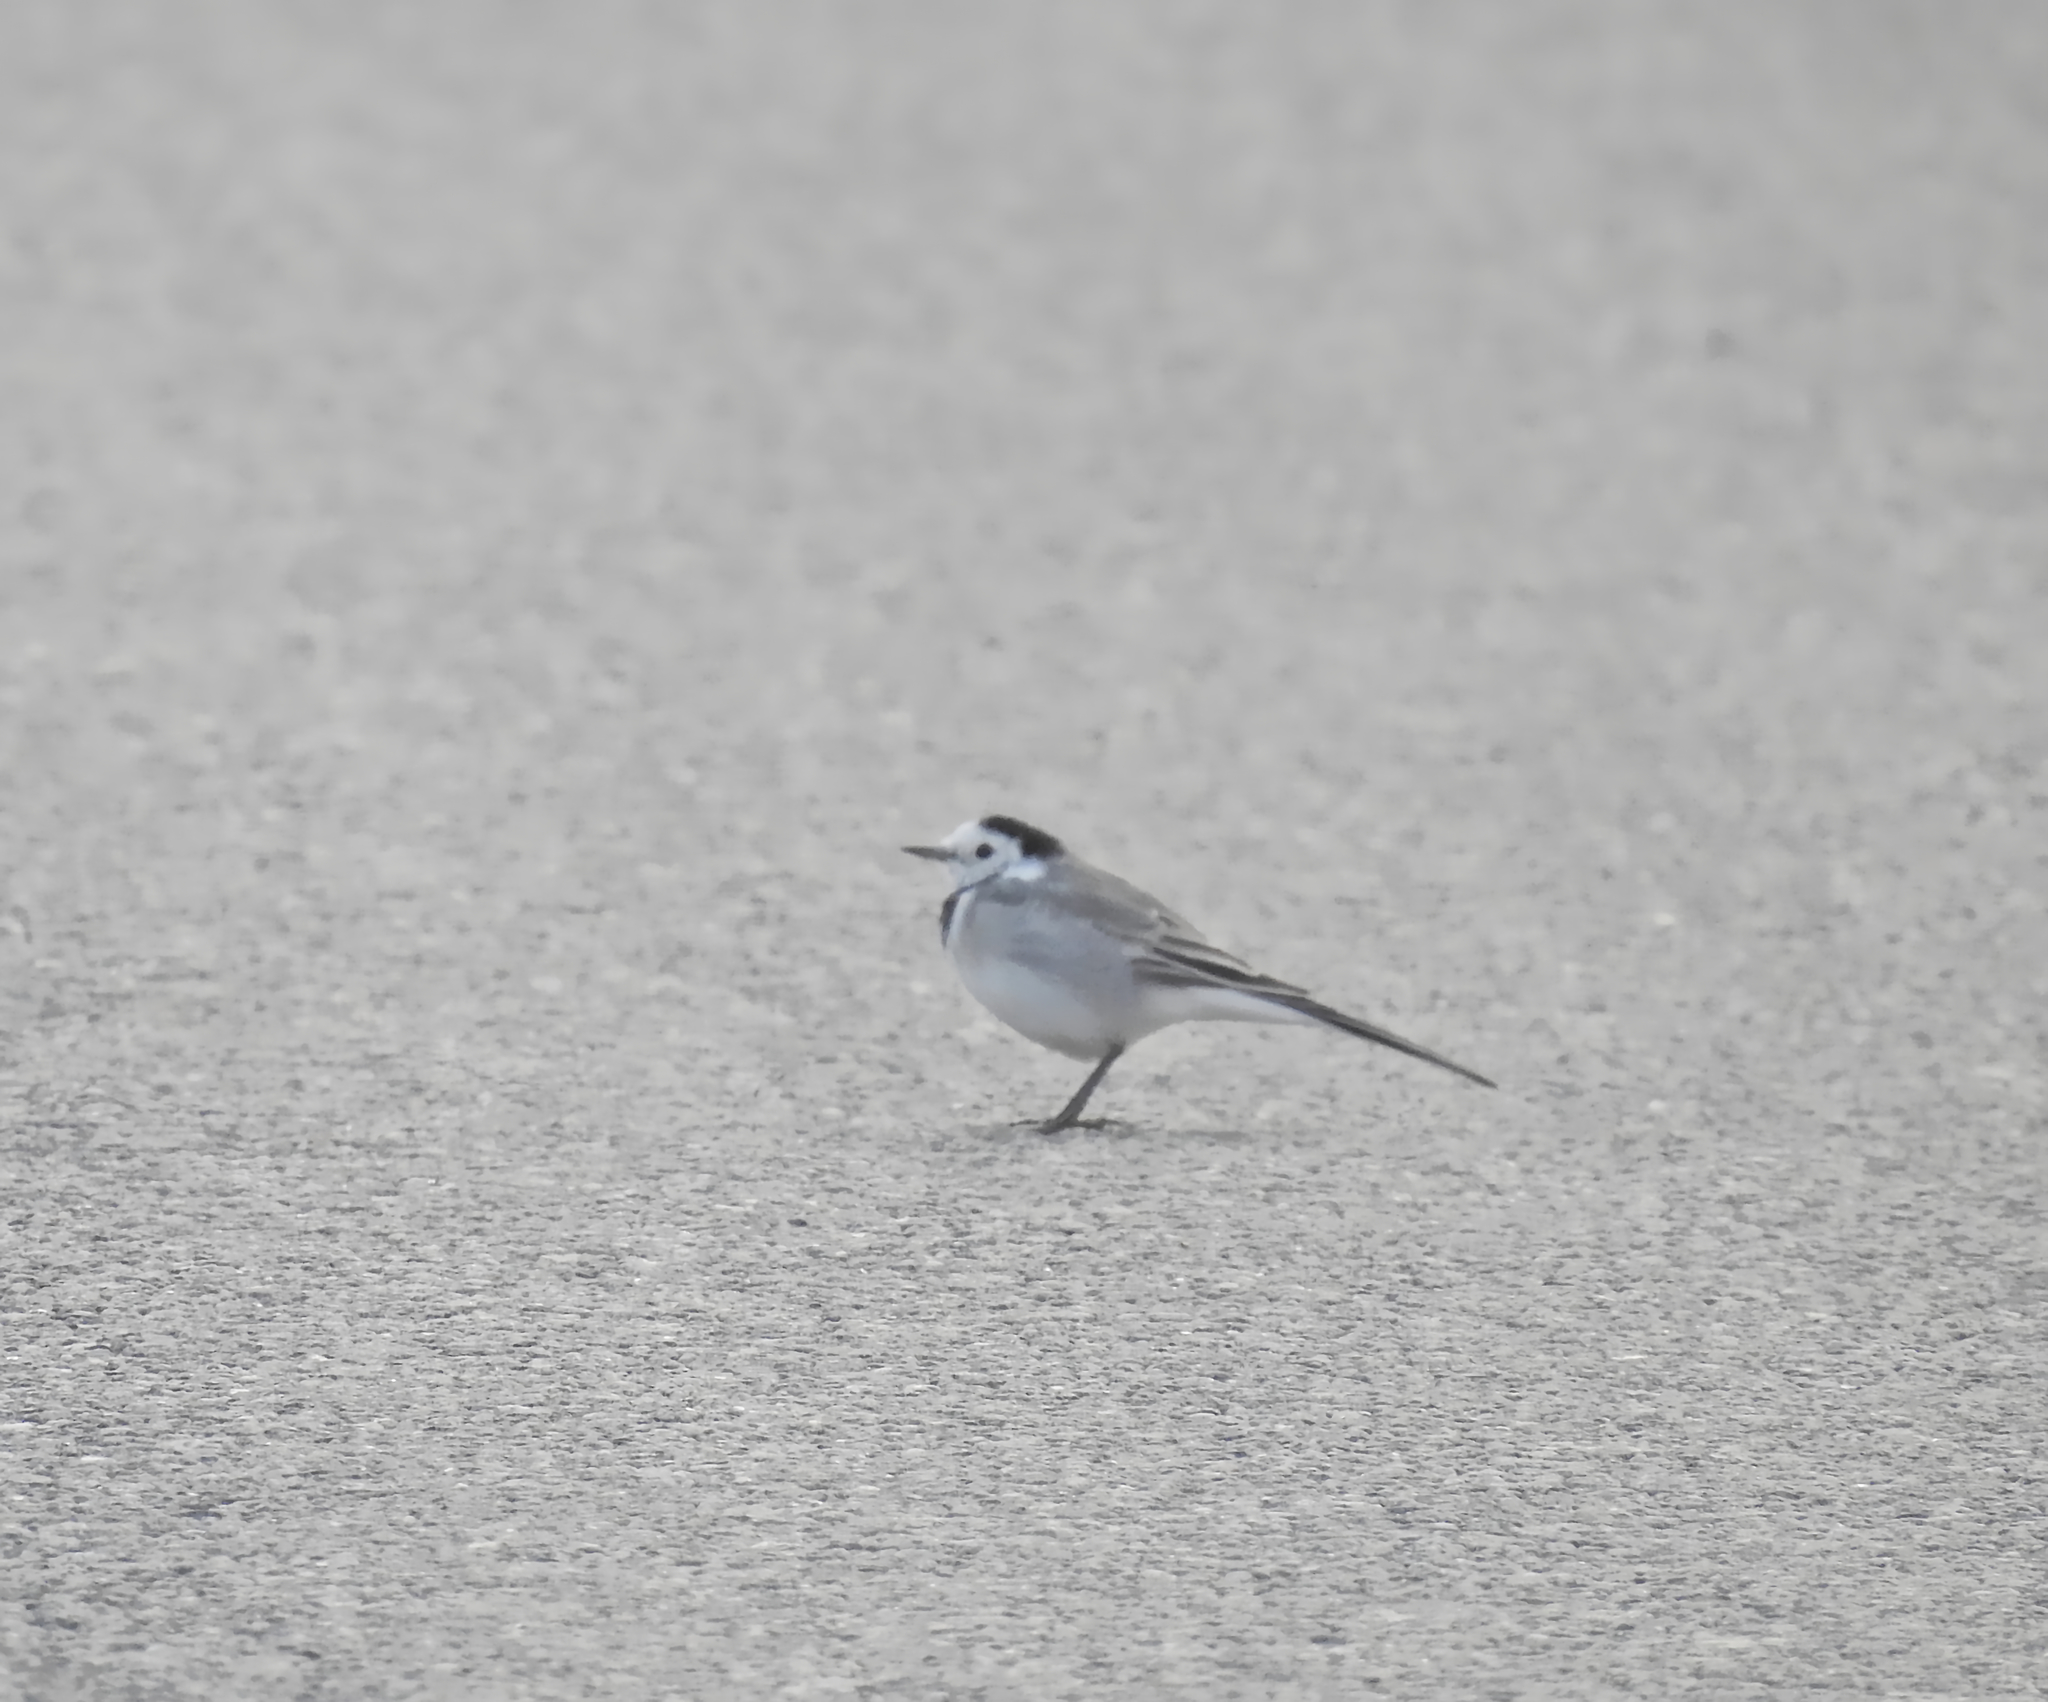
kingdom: Animalia
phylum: Chordata
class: Aves
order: Passeriformes
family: Motacillidae
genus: Motacilla
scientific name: Motacilla alba
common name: White wagtail
